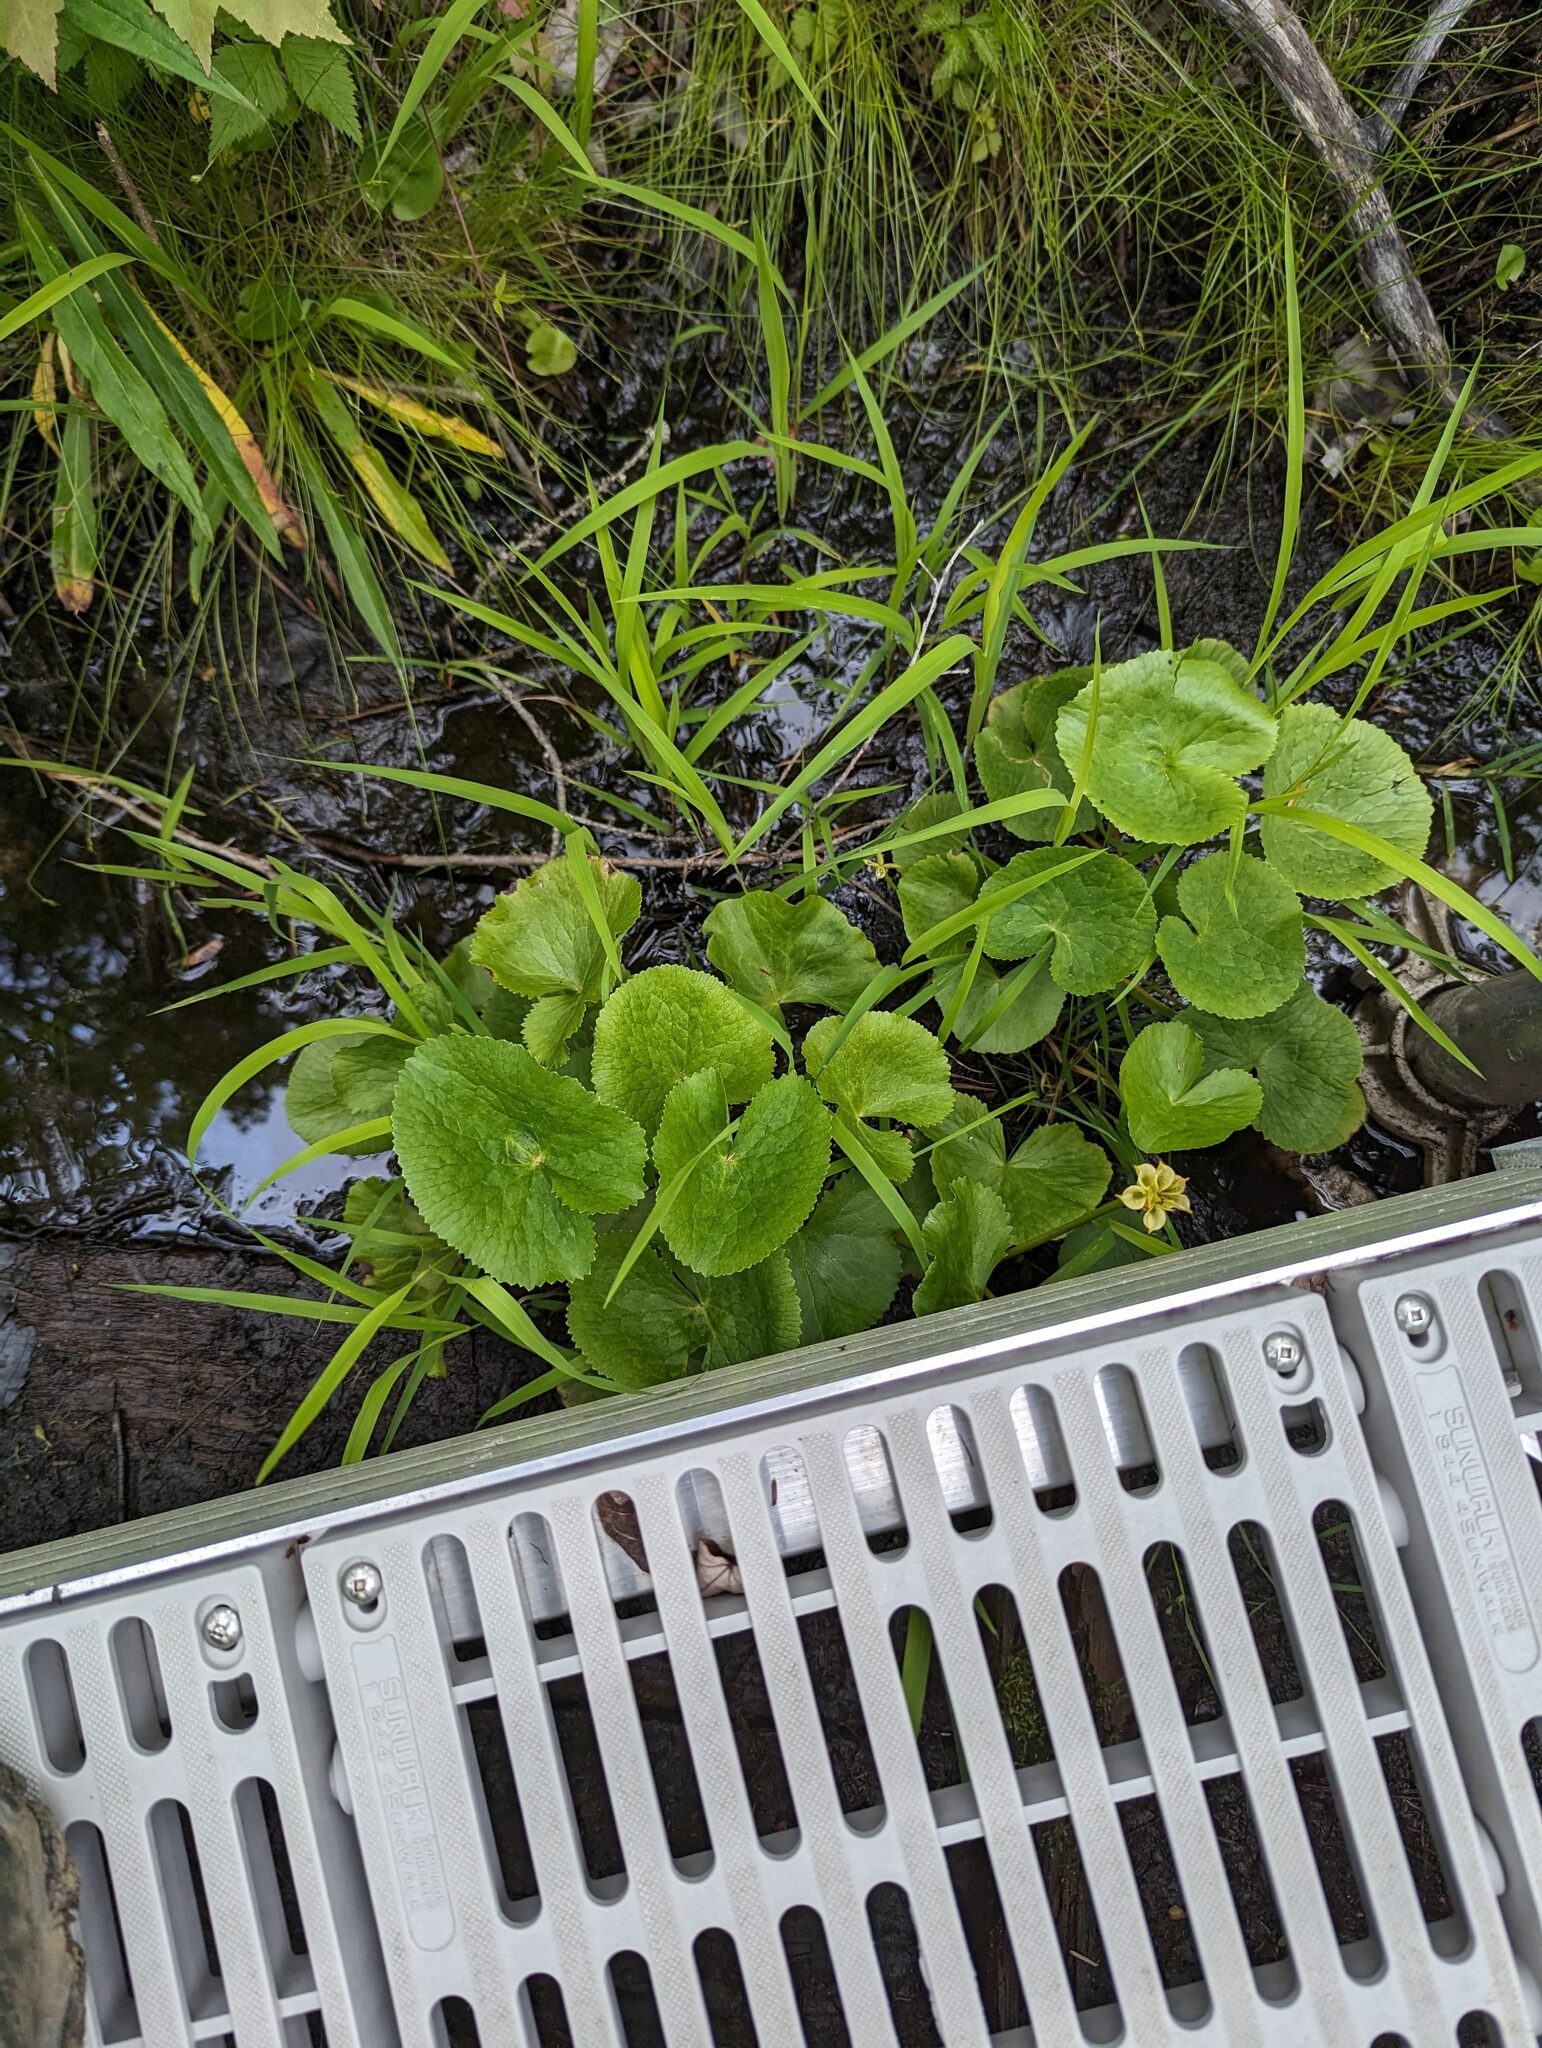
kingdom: Plantae
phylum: Tracheophyta
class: Magnoliopsida
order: Ranunculales
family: Ranunculaceae
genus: Caltha
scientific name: Caltha palustris
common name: Marsh marigold
